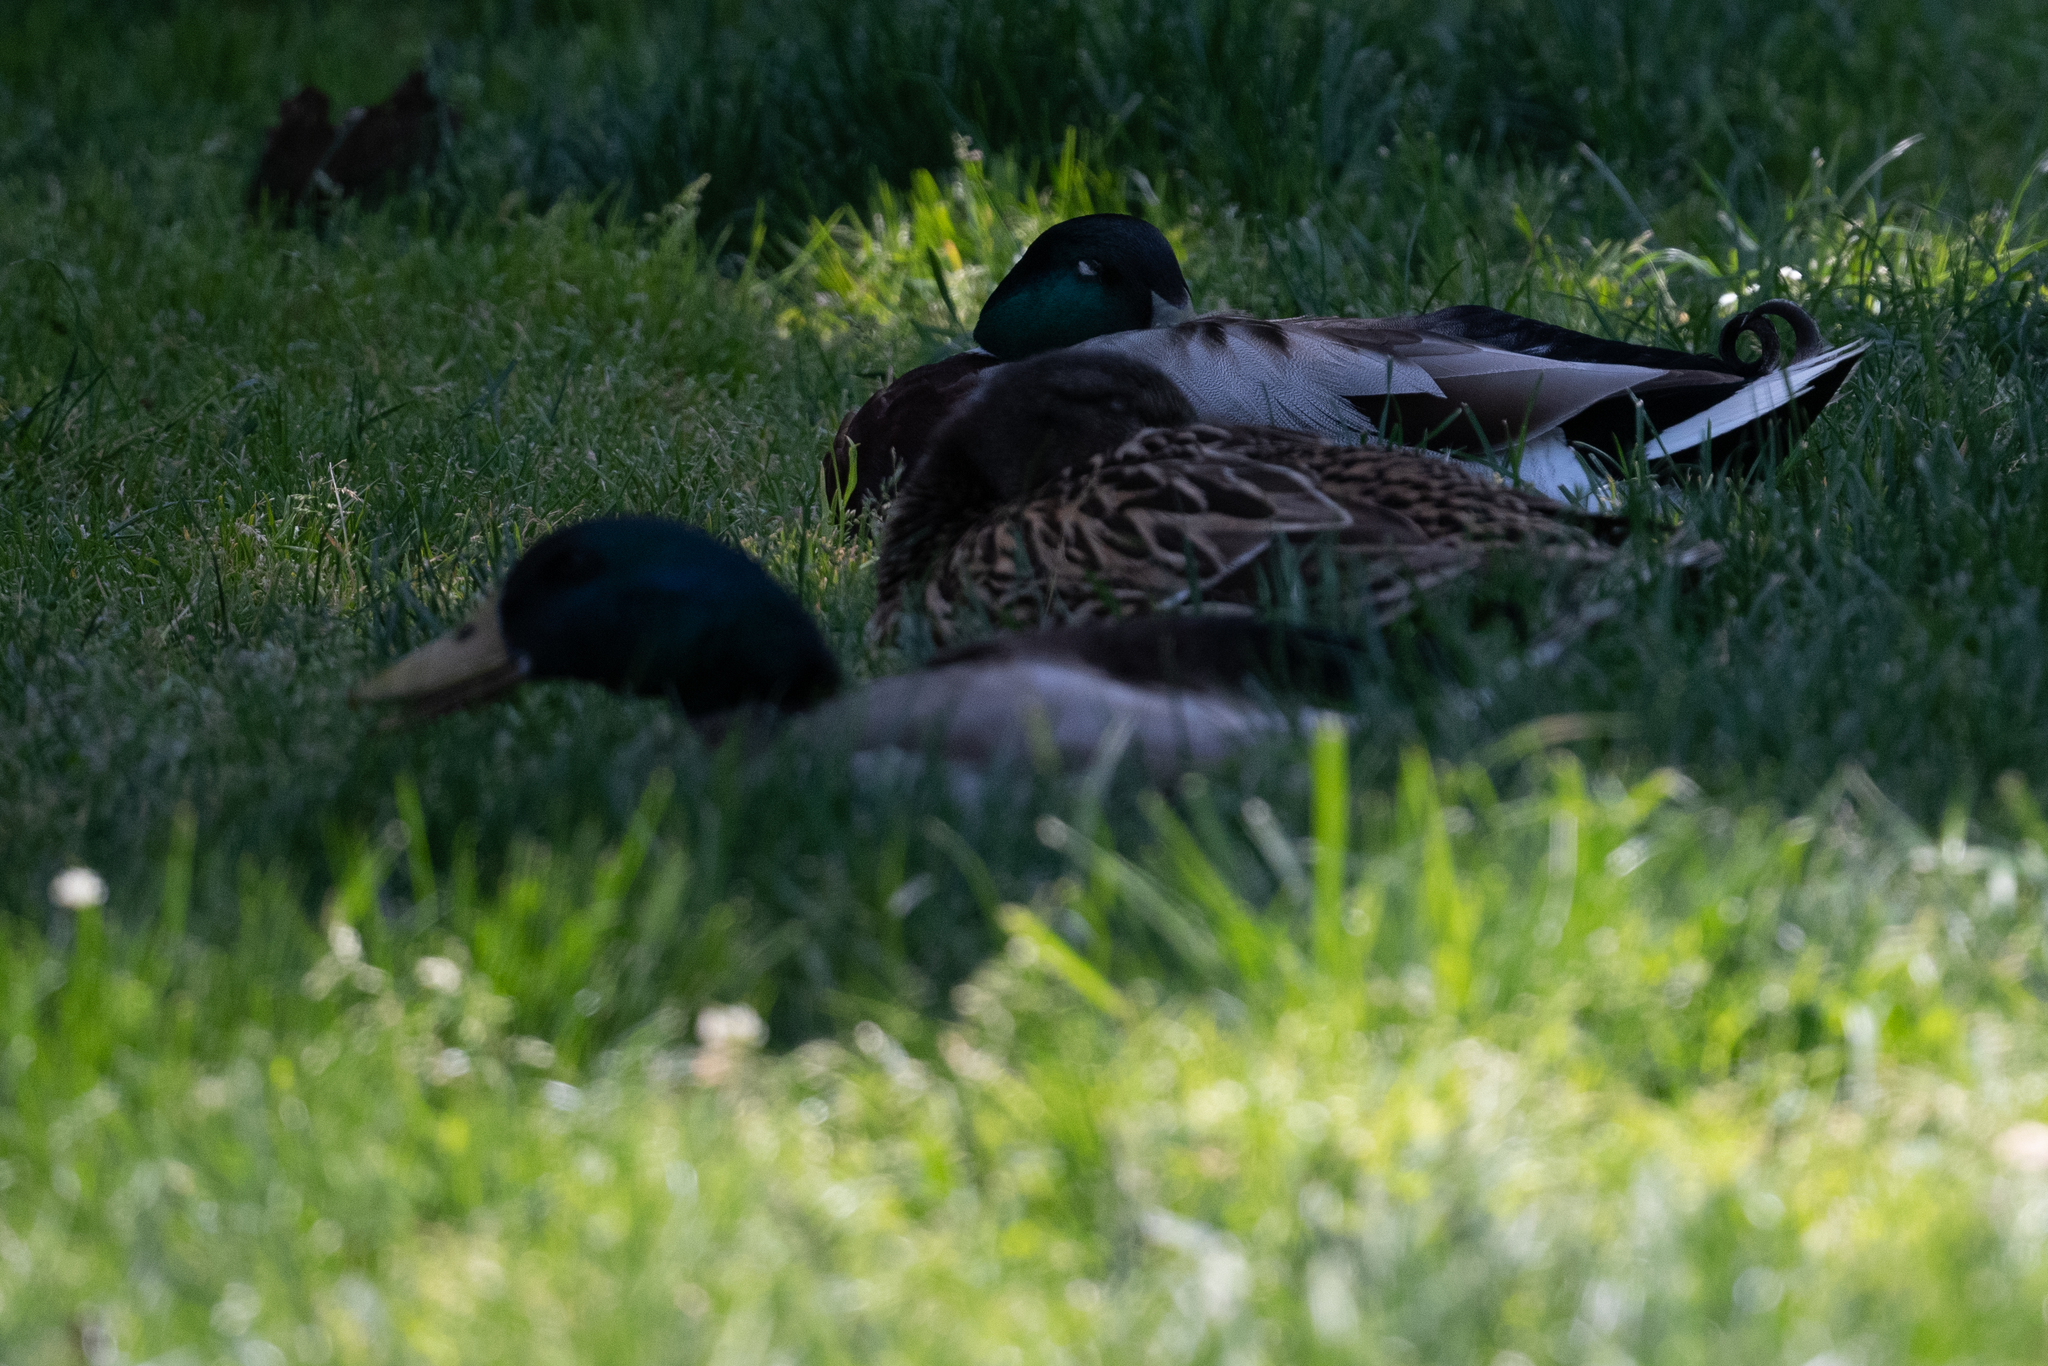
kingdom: Animalia
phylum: Chordata
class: Aves
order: Anseriformes
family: Anatidae
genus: Anas
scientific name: Anas platyrhynchos
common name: Mallard
